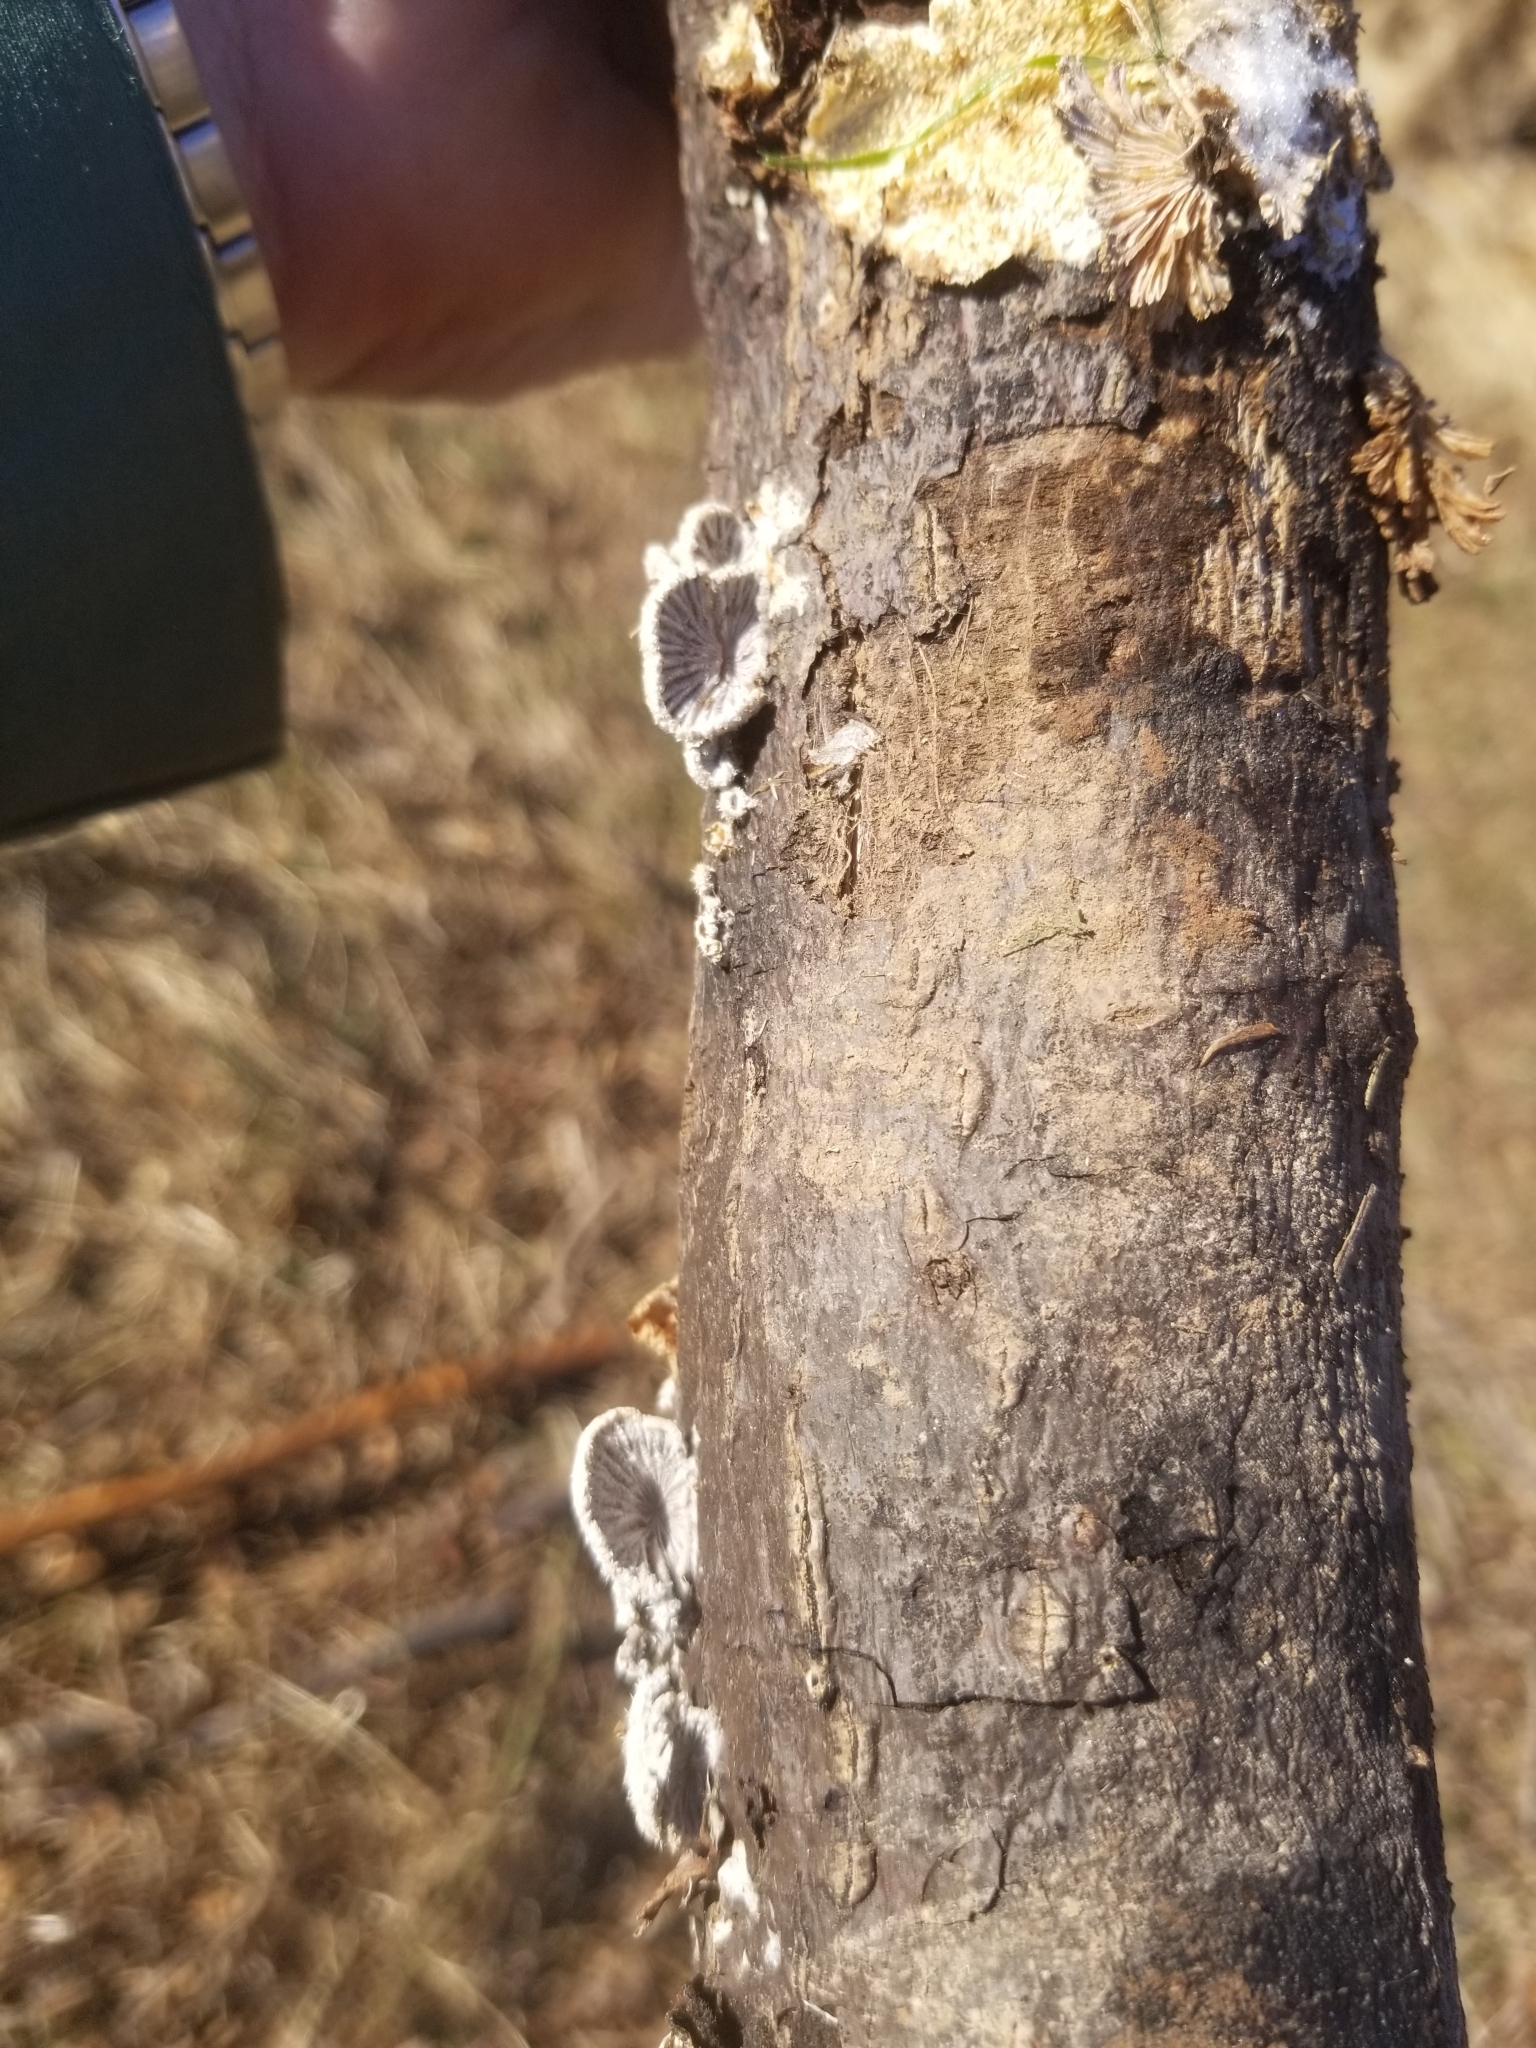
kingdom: Fungi
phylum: Basidiomycota
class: Agaricomycetes
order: Agaricales
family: Schizophyllaceae
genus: Schizophyllum
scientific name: Schizophyllum commune
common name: Common porecrust
